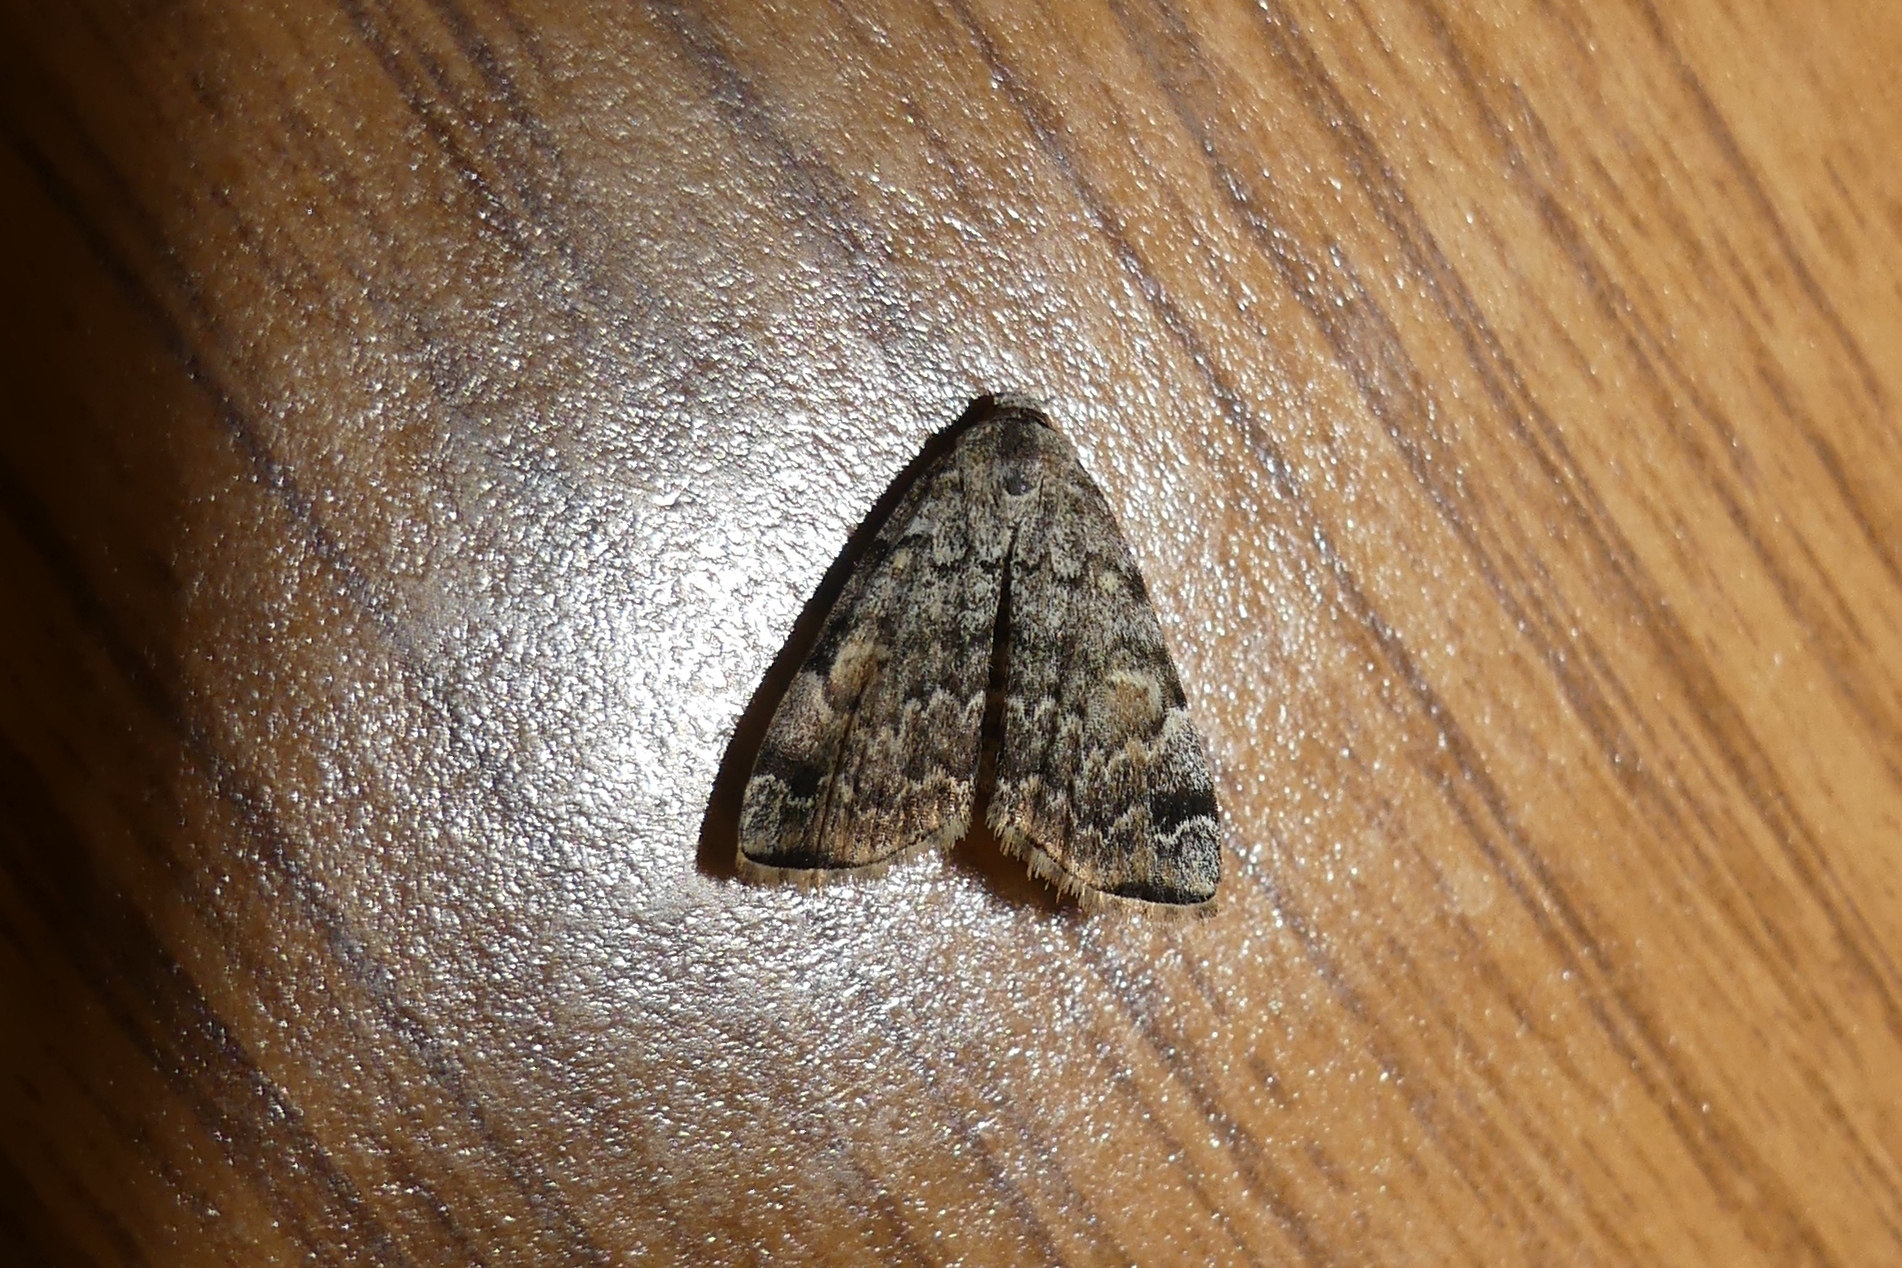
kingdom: Animalia
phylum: Arthropoda
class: Insecta
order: Lepidoptera
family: Erebidae
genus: Idia
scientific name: Idia americalis
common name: American idia moth
